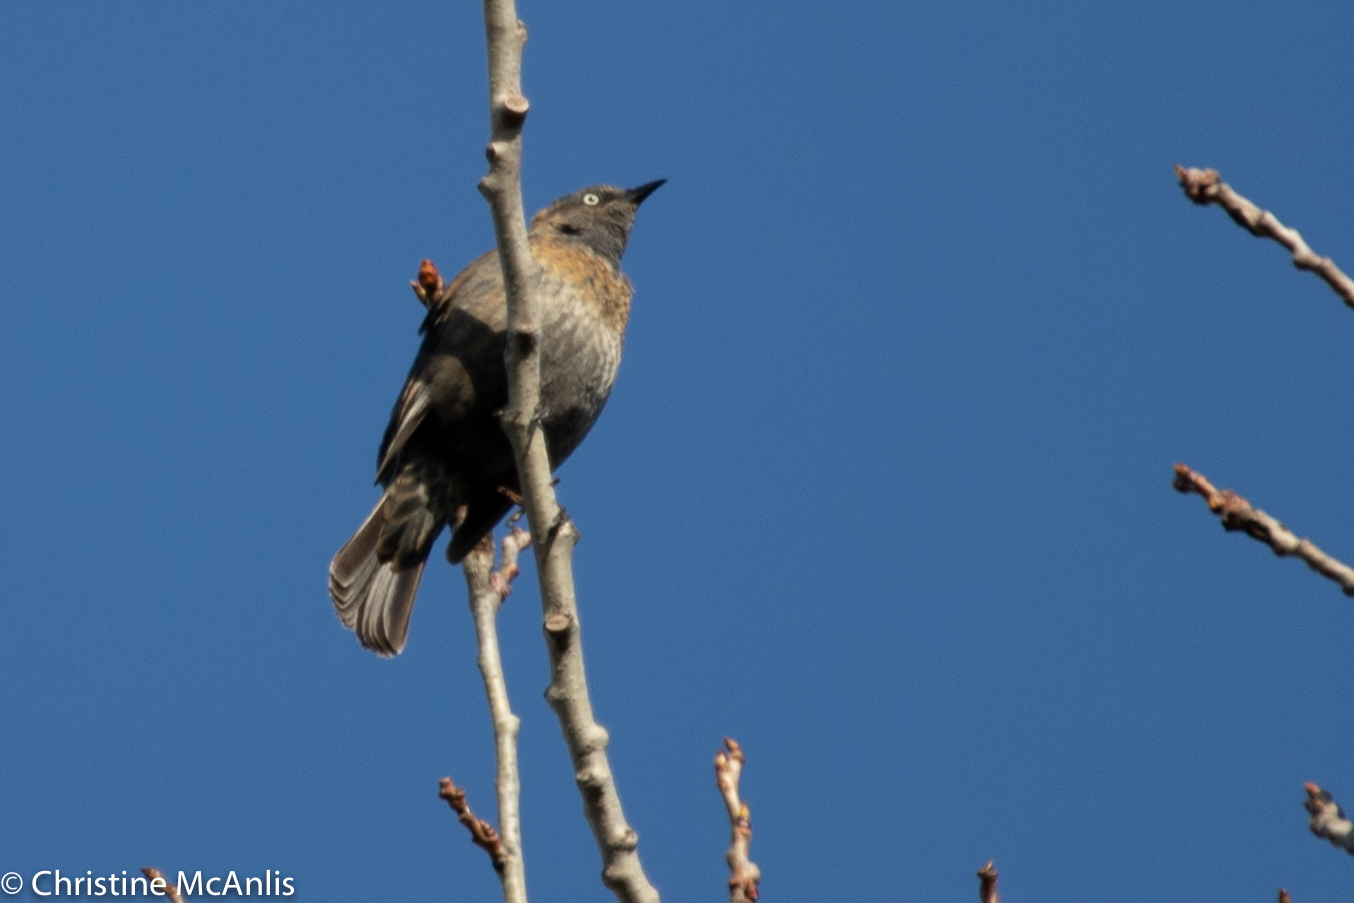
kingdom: Animalia
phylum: Chordata
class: Aves
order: Passeriformes
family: Icteridae
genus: Euphagus
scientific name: Euphagus carolinus
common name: Rusty blackbird
